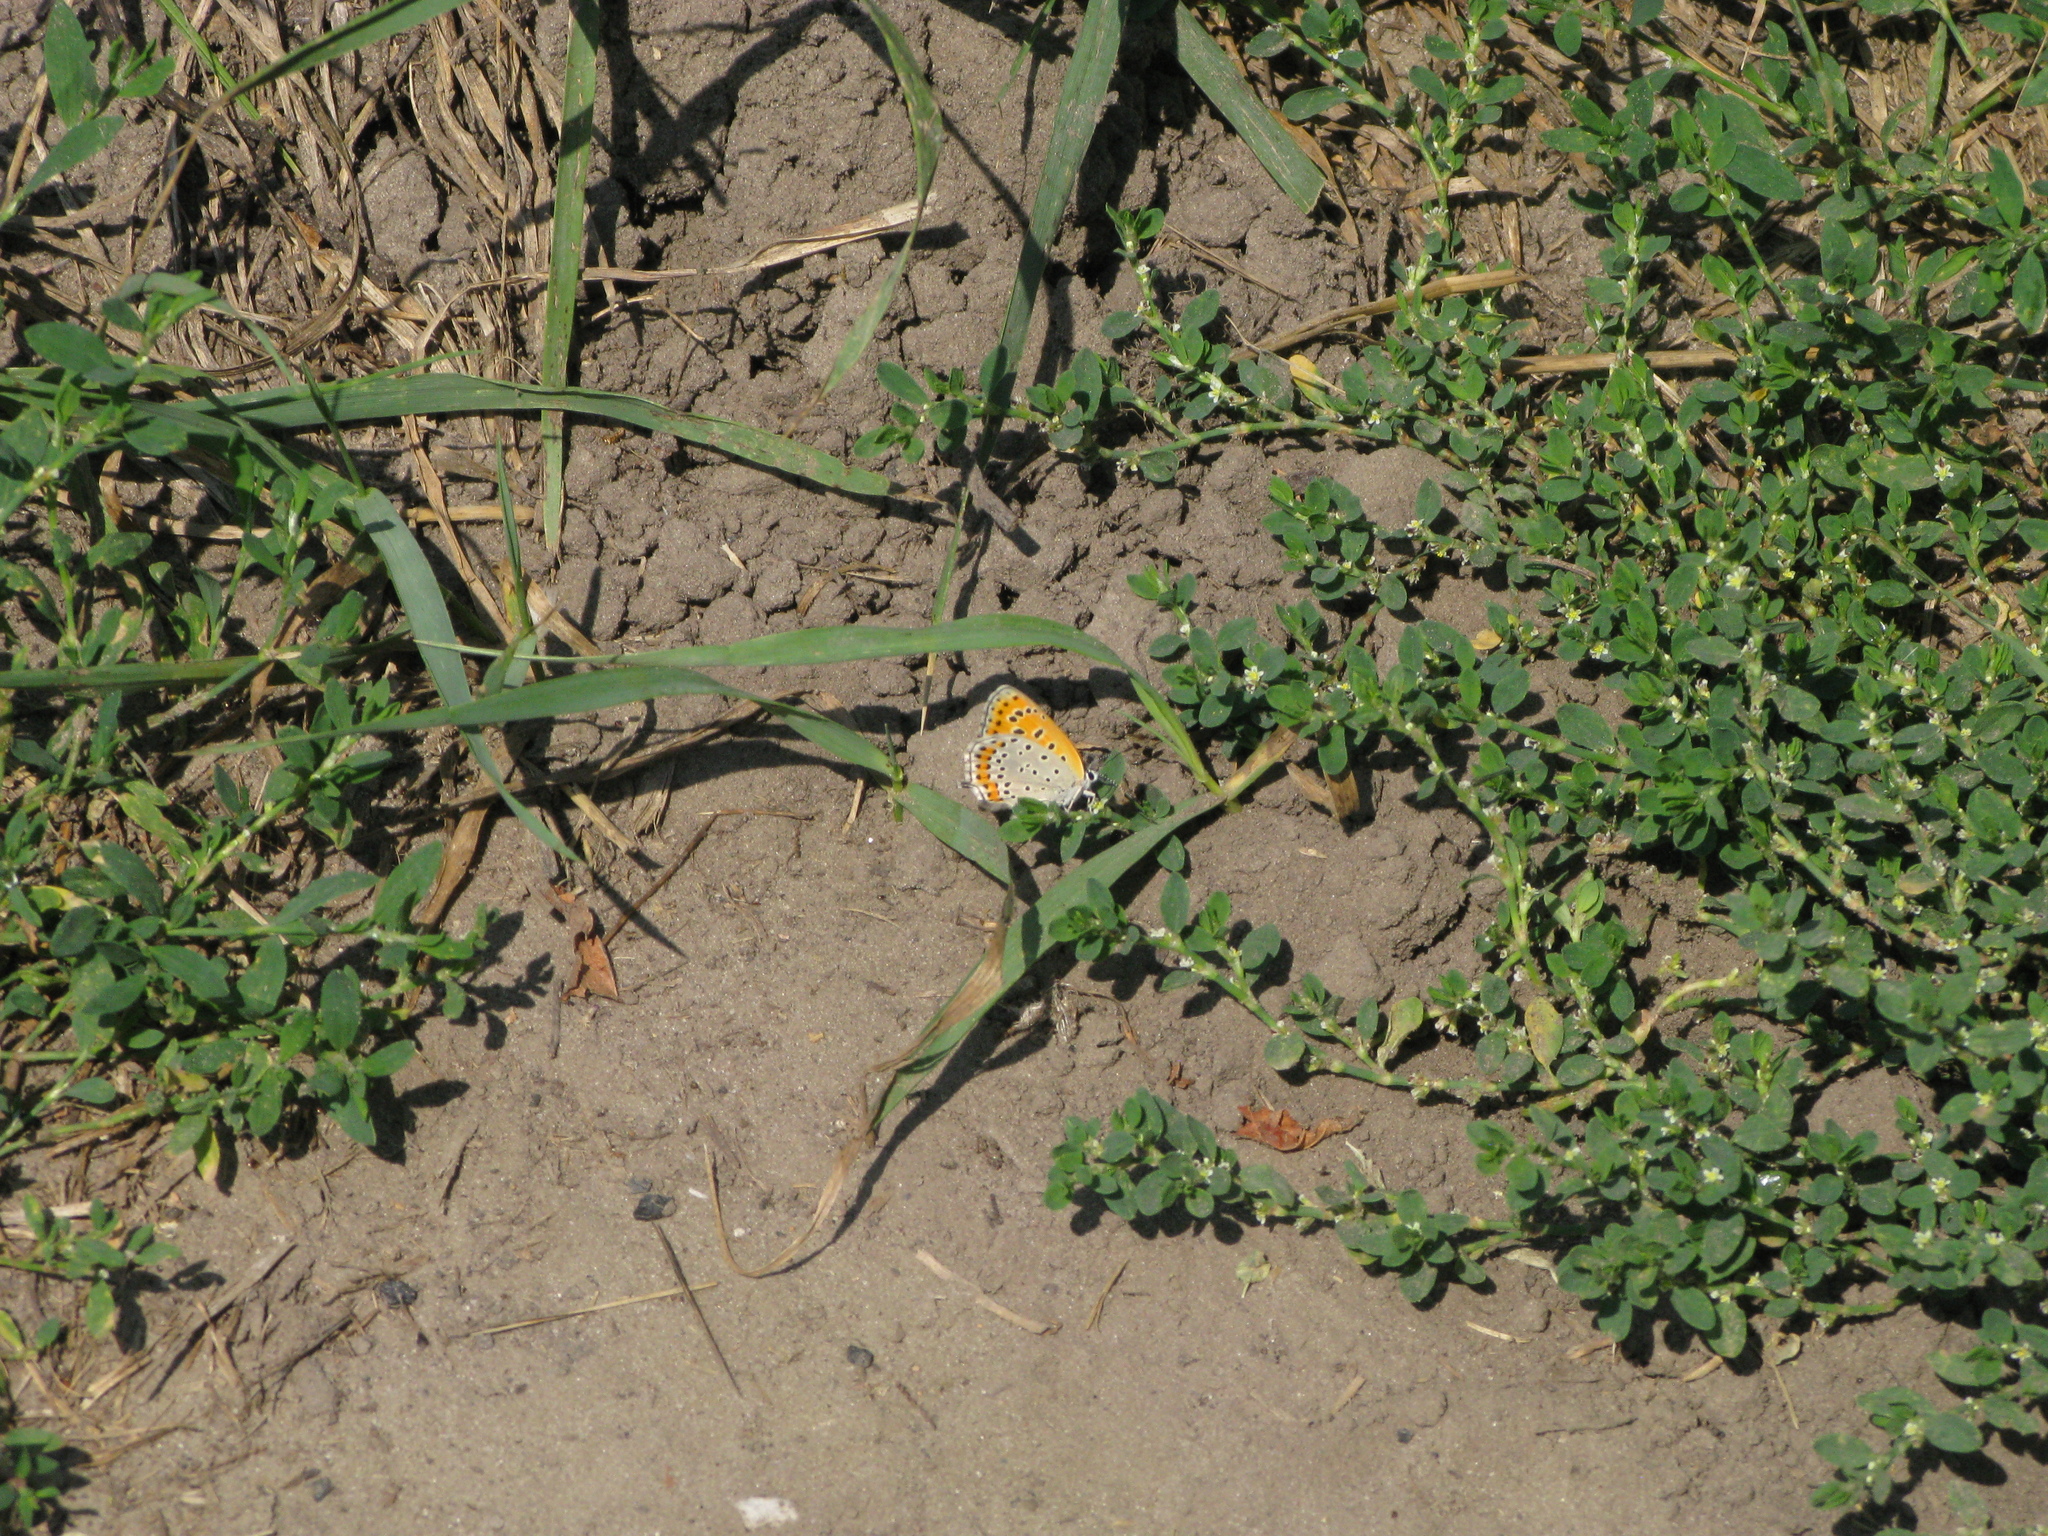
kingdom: Animalia
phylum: Arthropoda
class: Insecta
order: Lepidoptera
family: Lycaenidae
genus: Thersamonia
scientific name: Thersamonia thersamon
